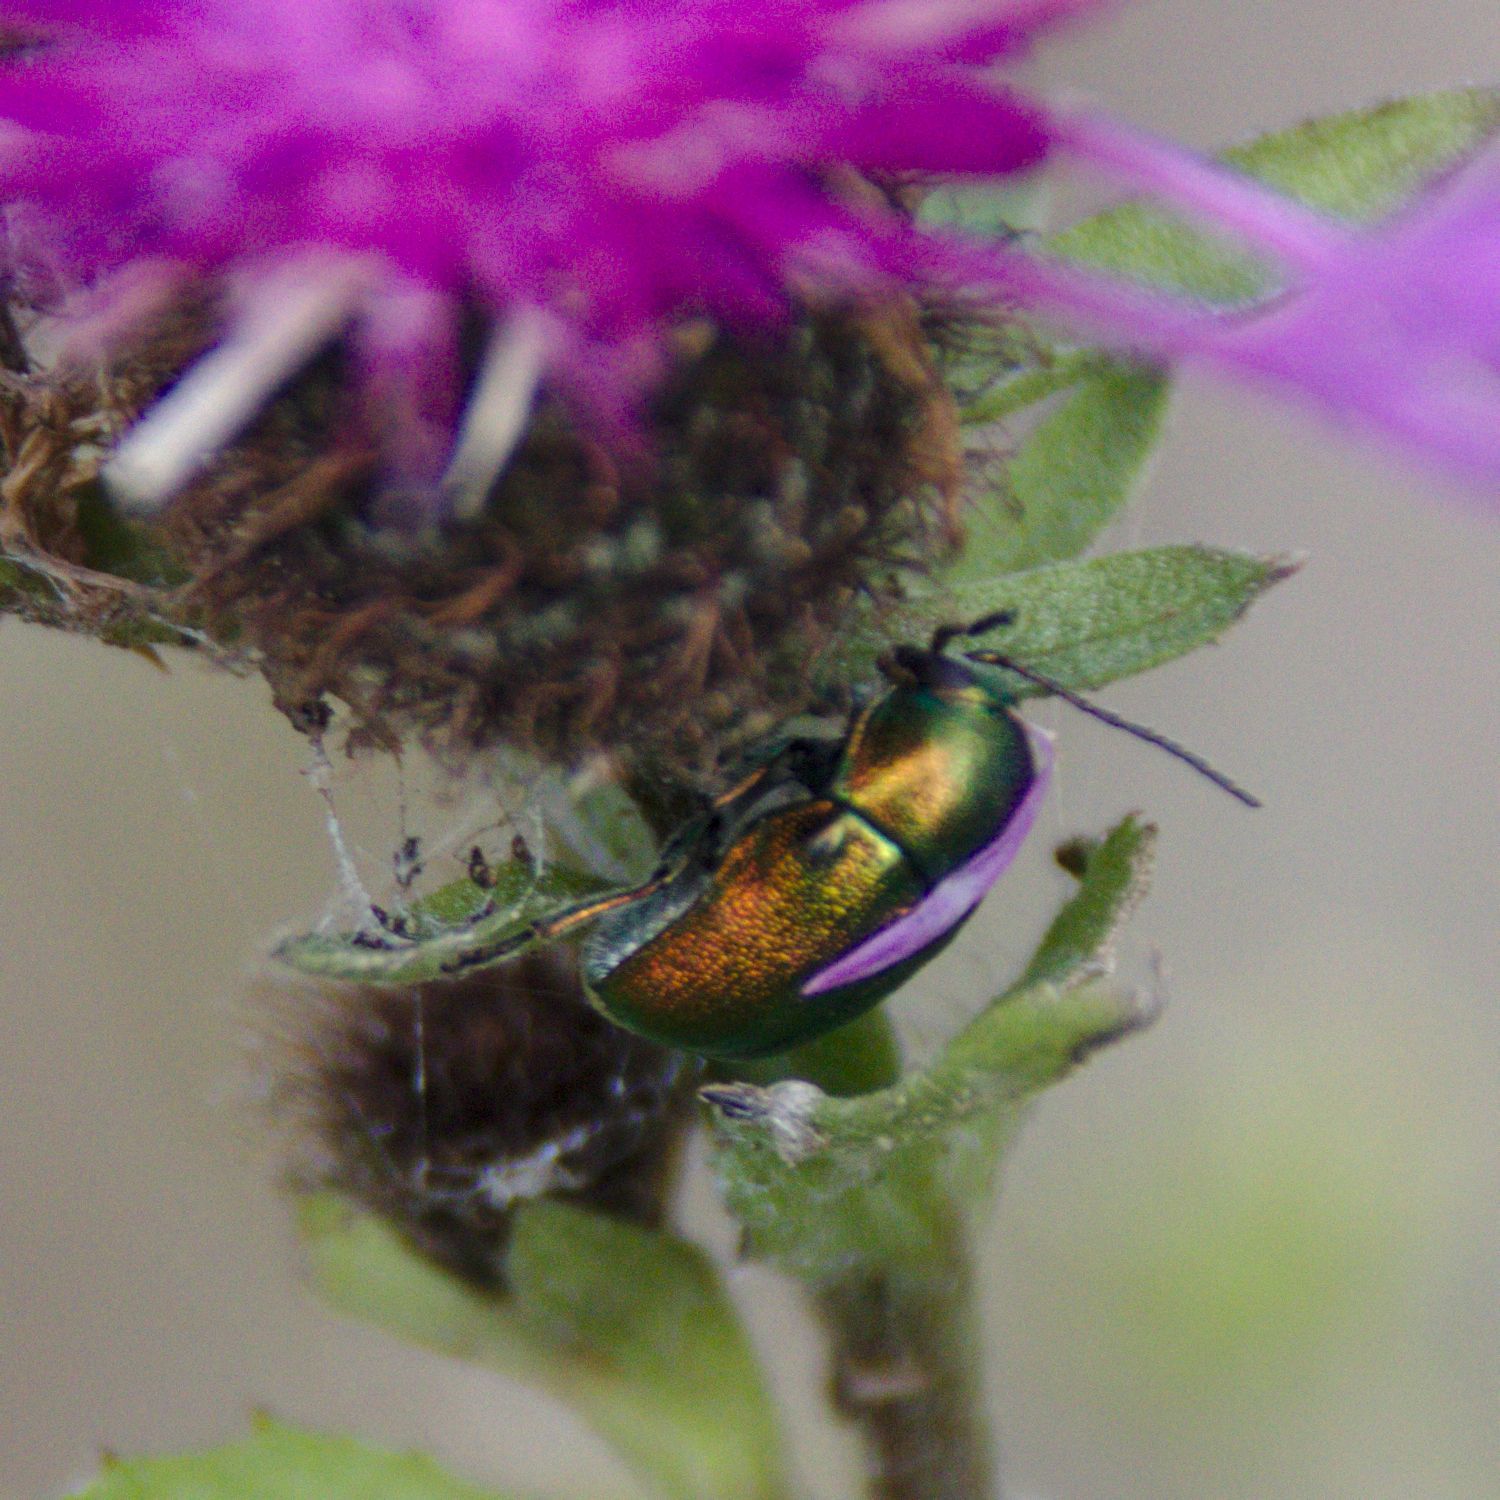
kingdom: Animalia
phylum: Arthropoda
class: Insecta
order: Coleoptera
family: Chrysomelidae
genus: Cryptocephalus
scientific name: Cryptocephalus
